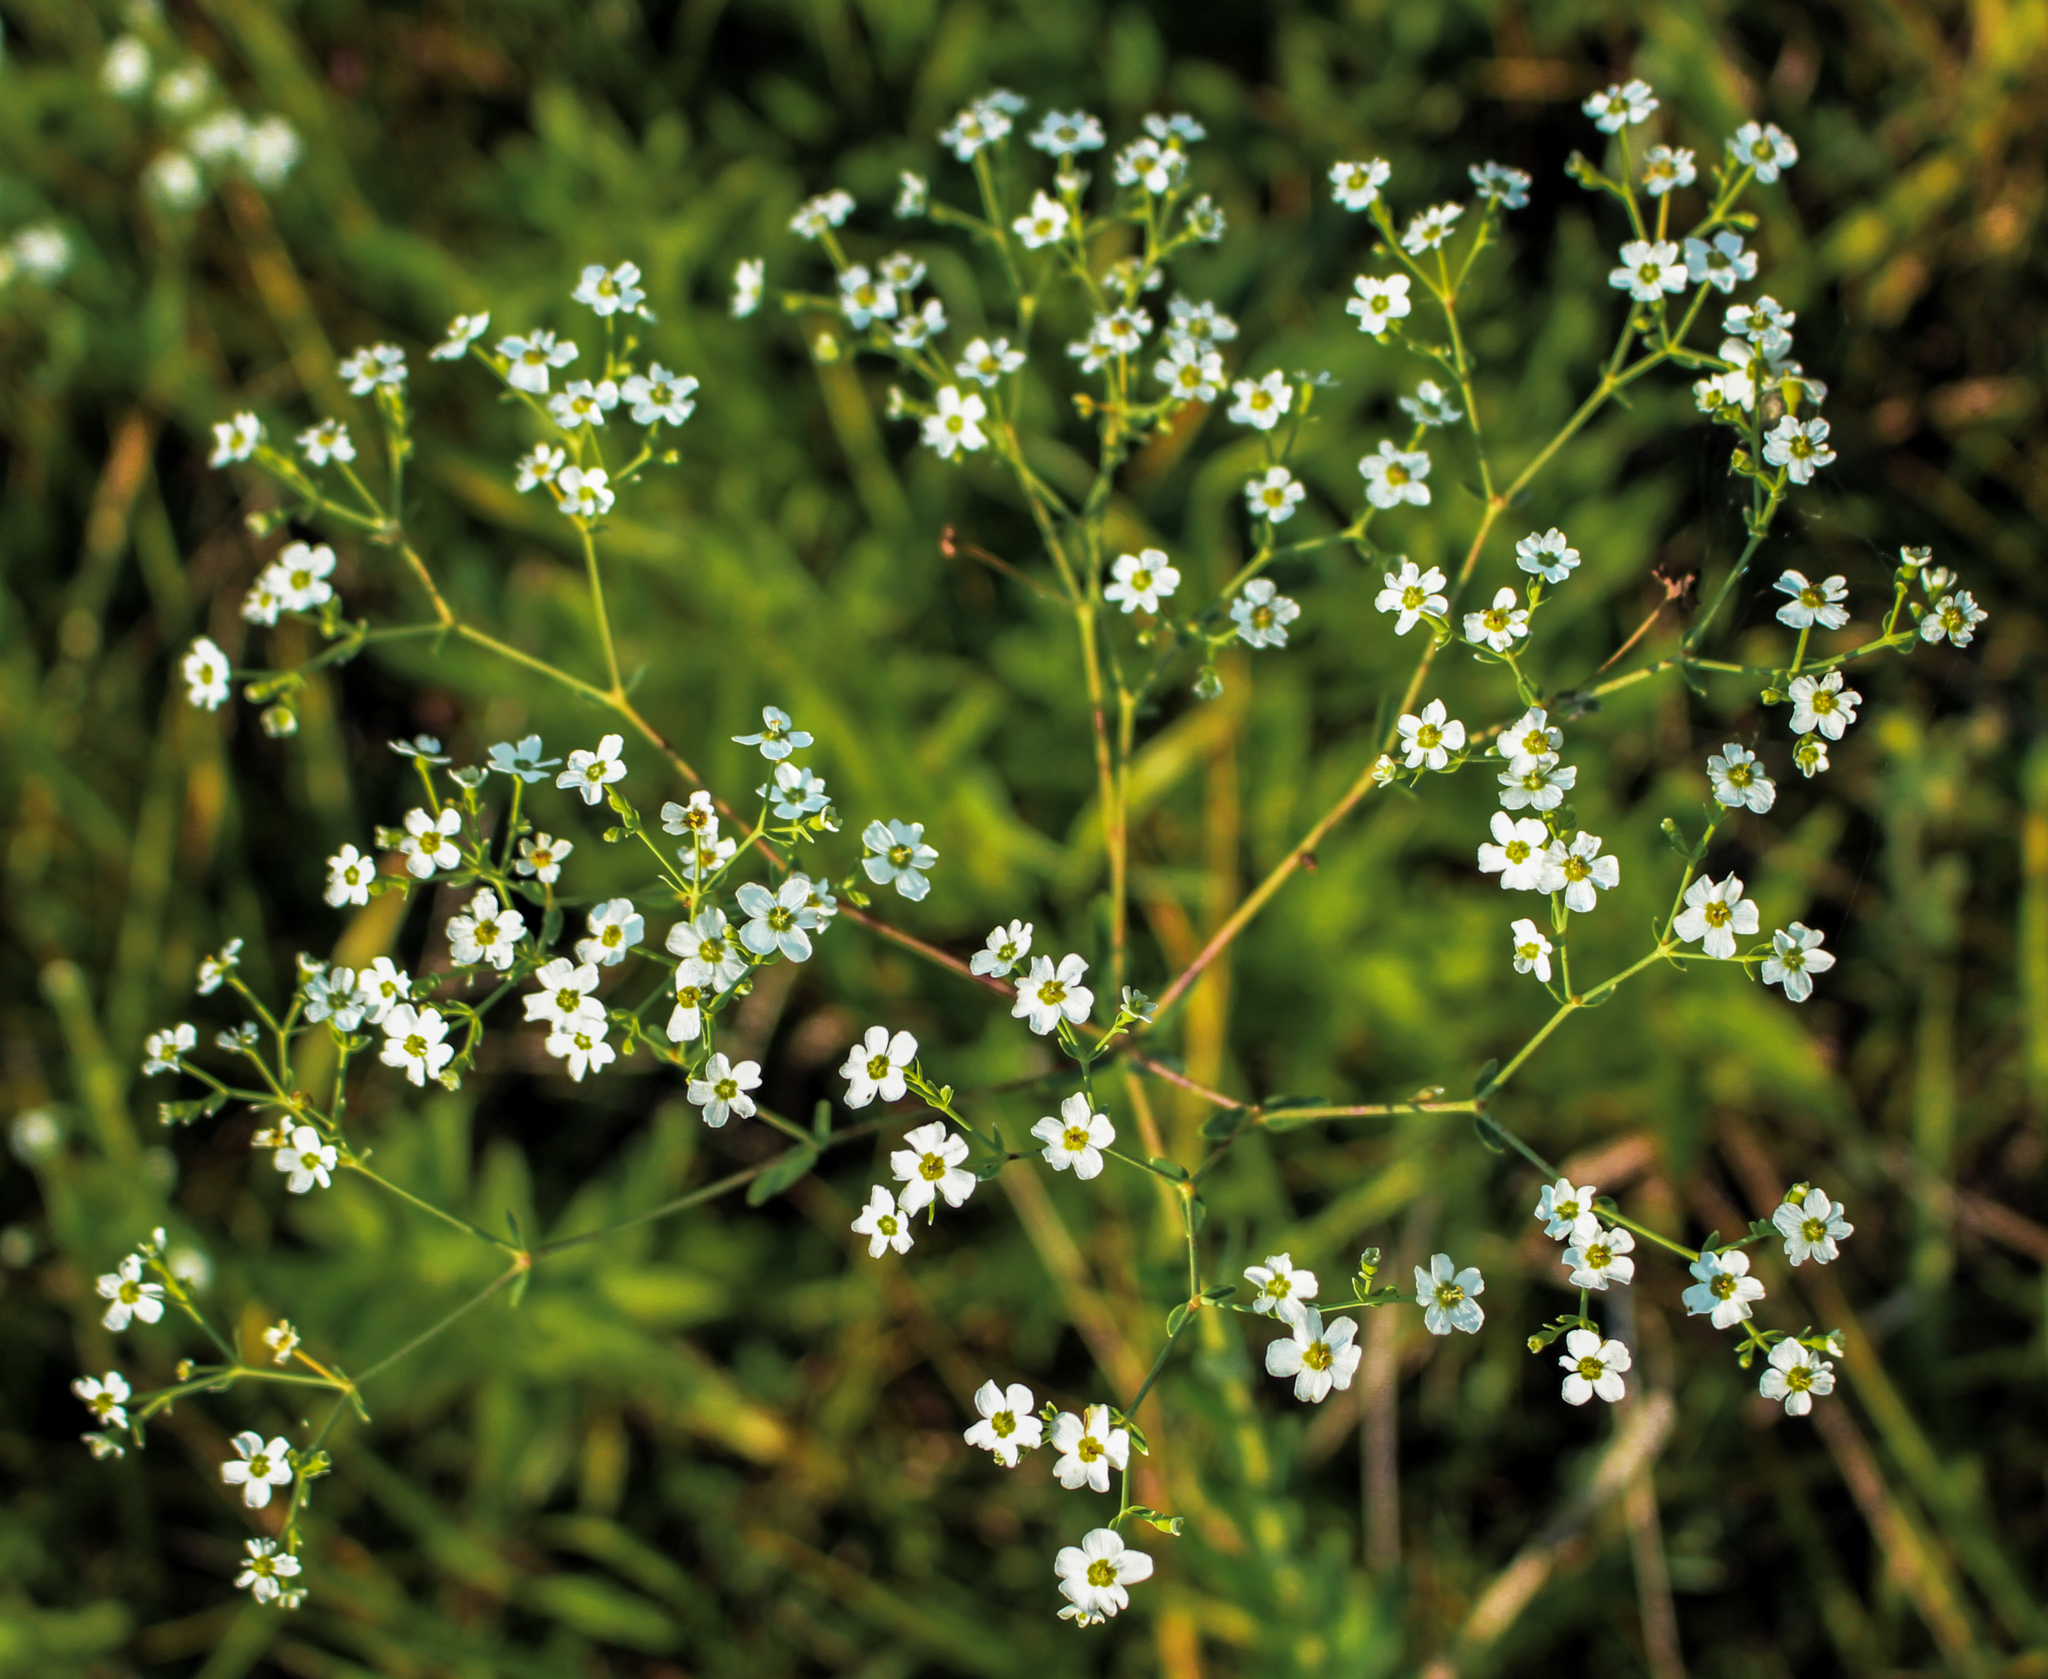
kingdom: Plantae
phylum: Tracheophyta
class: Magnoliopsida
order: Malpighiales
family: Euphorbiaceae
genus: Euphorbia
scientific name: Euphorbia corollata
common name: Flowering spurge
